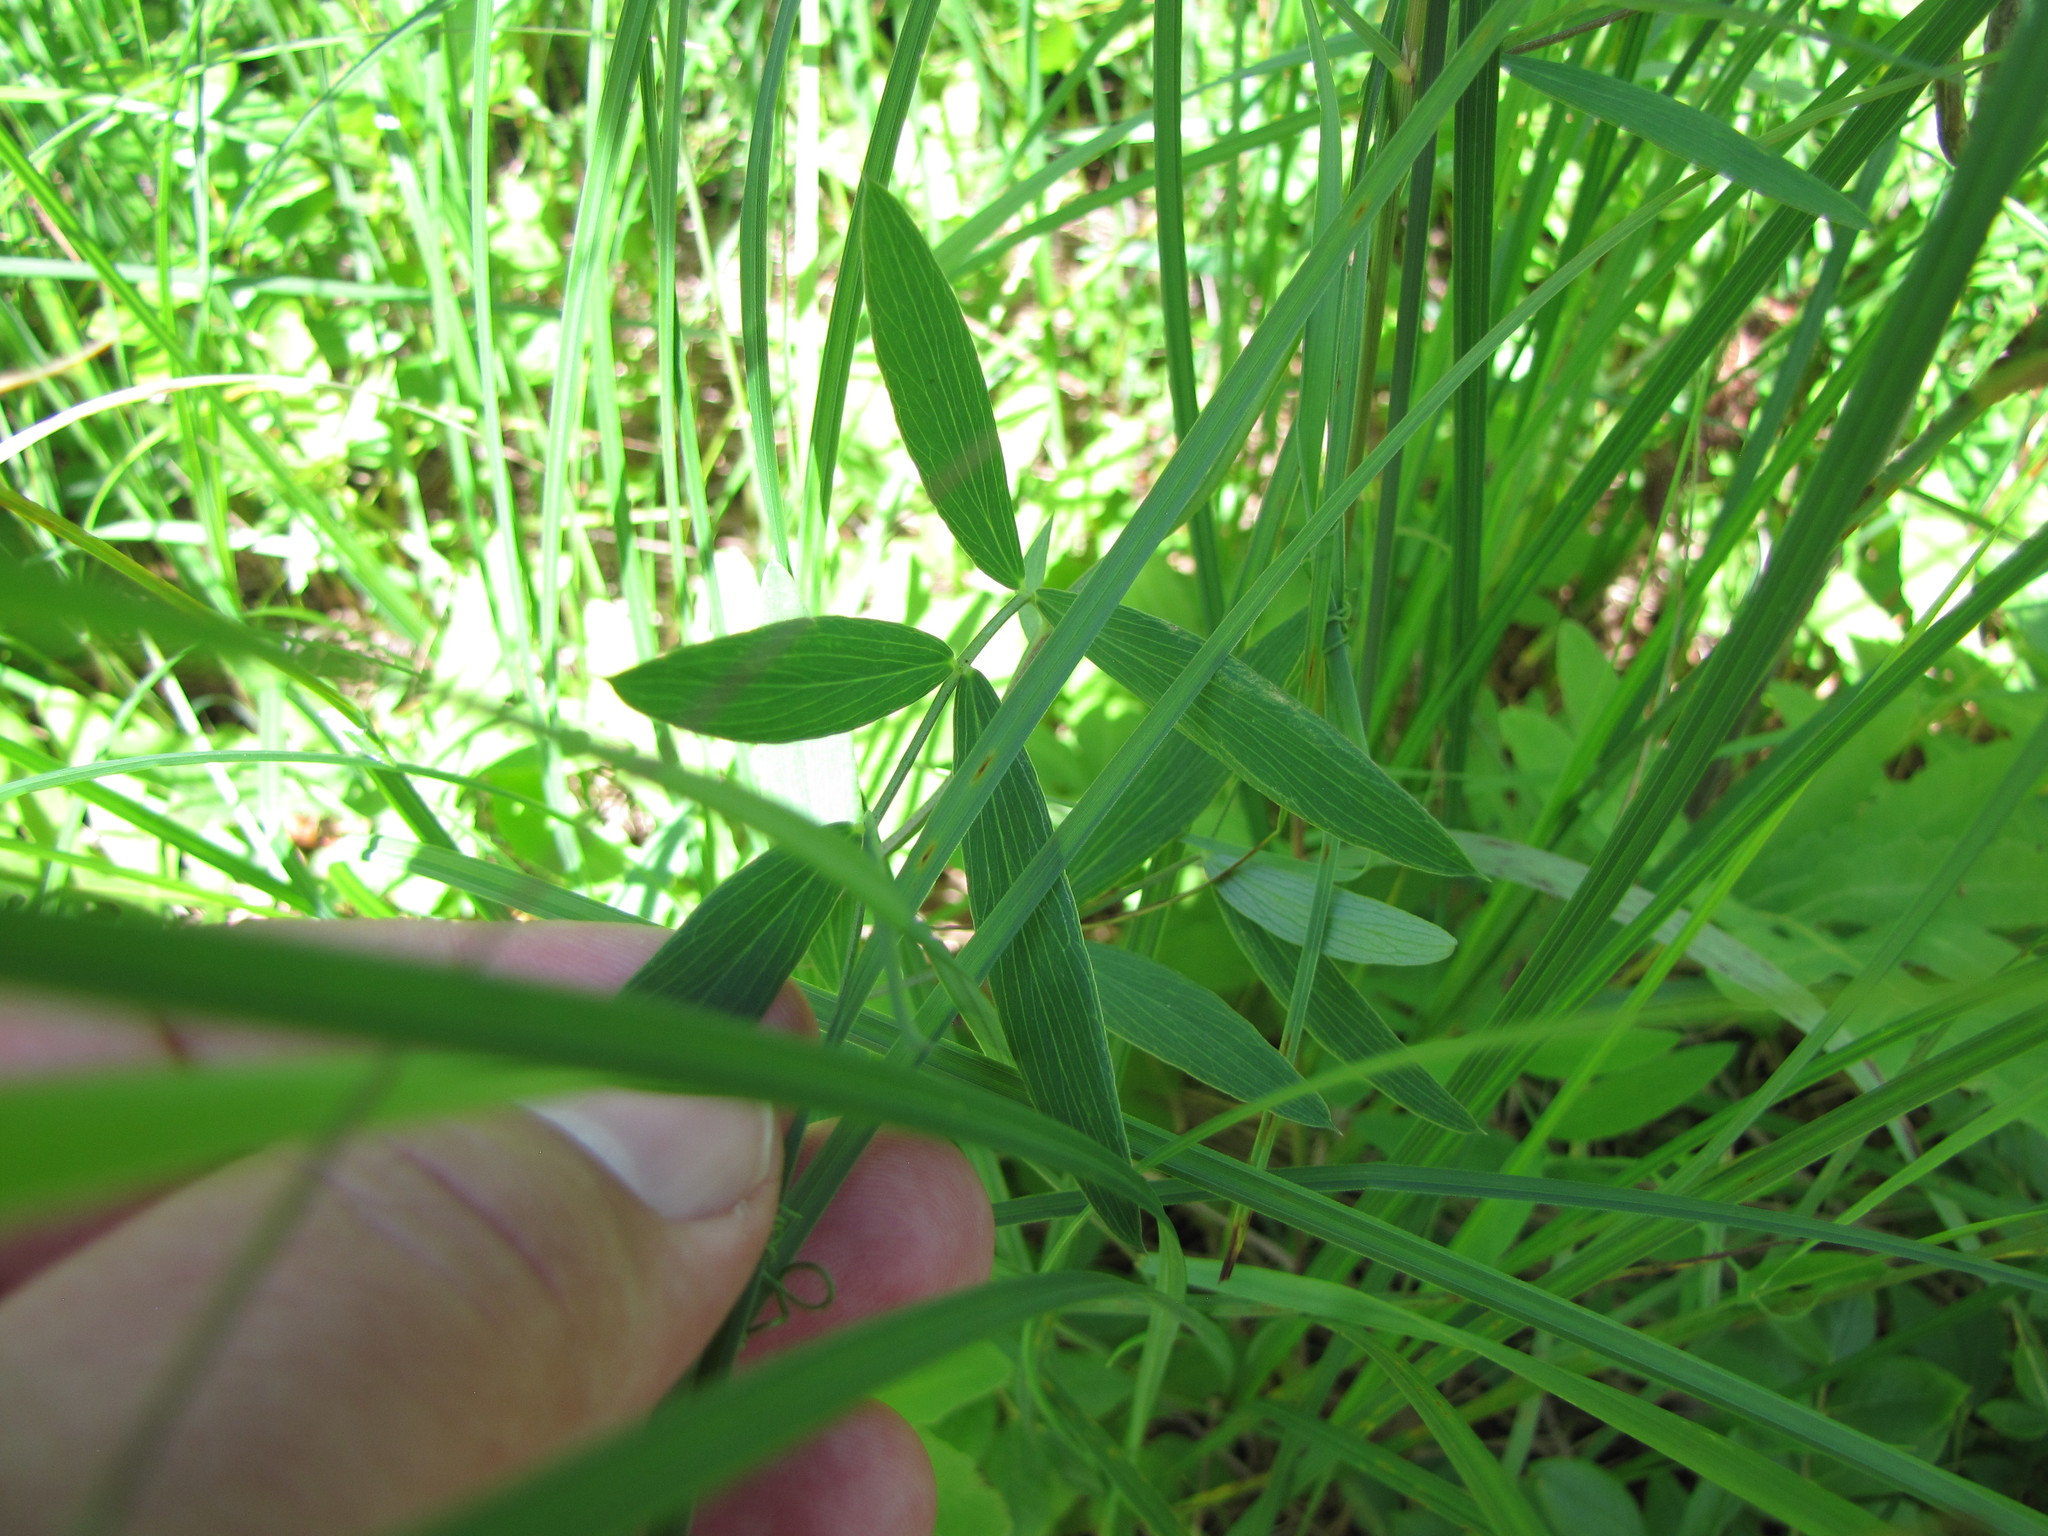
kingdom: Plantae
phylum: Tracheophyta
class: Magnoliopsida
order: Fabales
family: Fabaceae
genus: Lathyrus
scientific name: Lathyrus palustris
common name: Marsh pea
